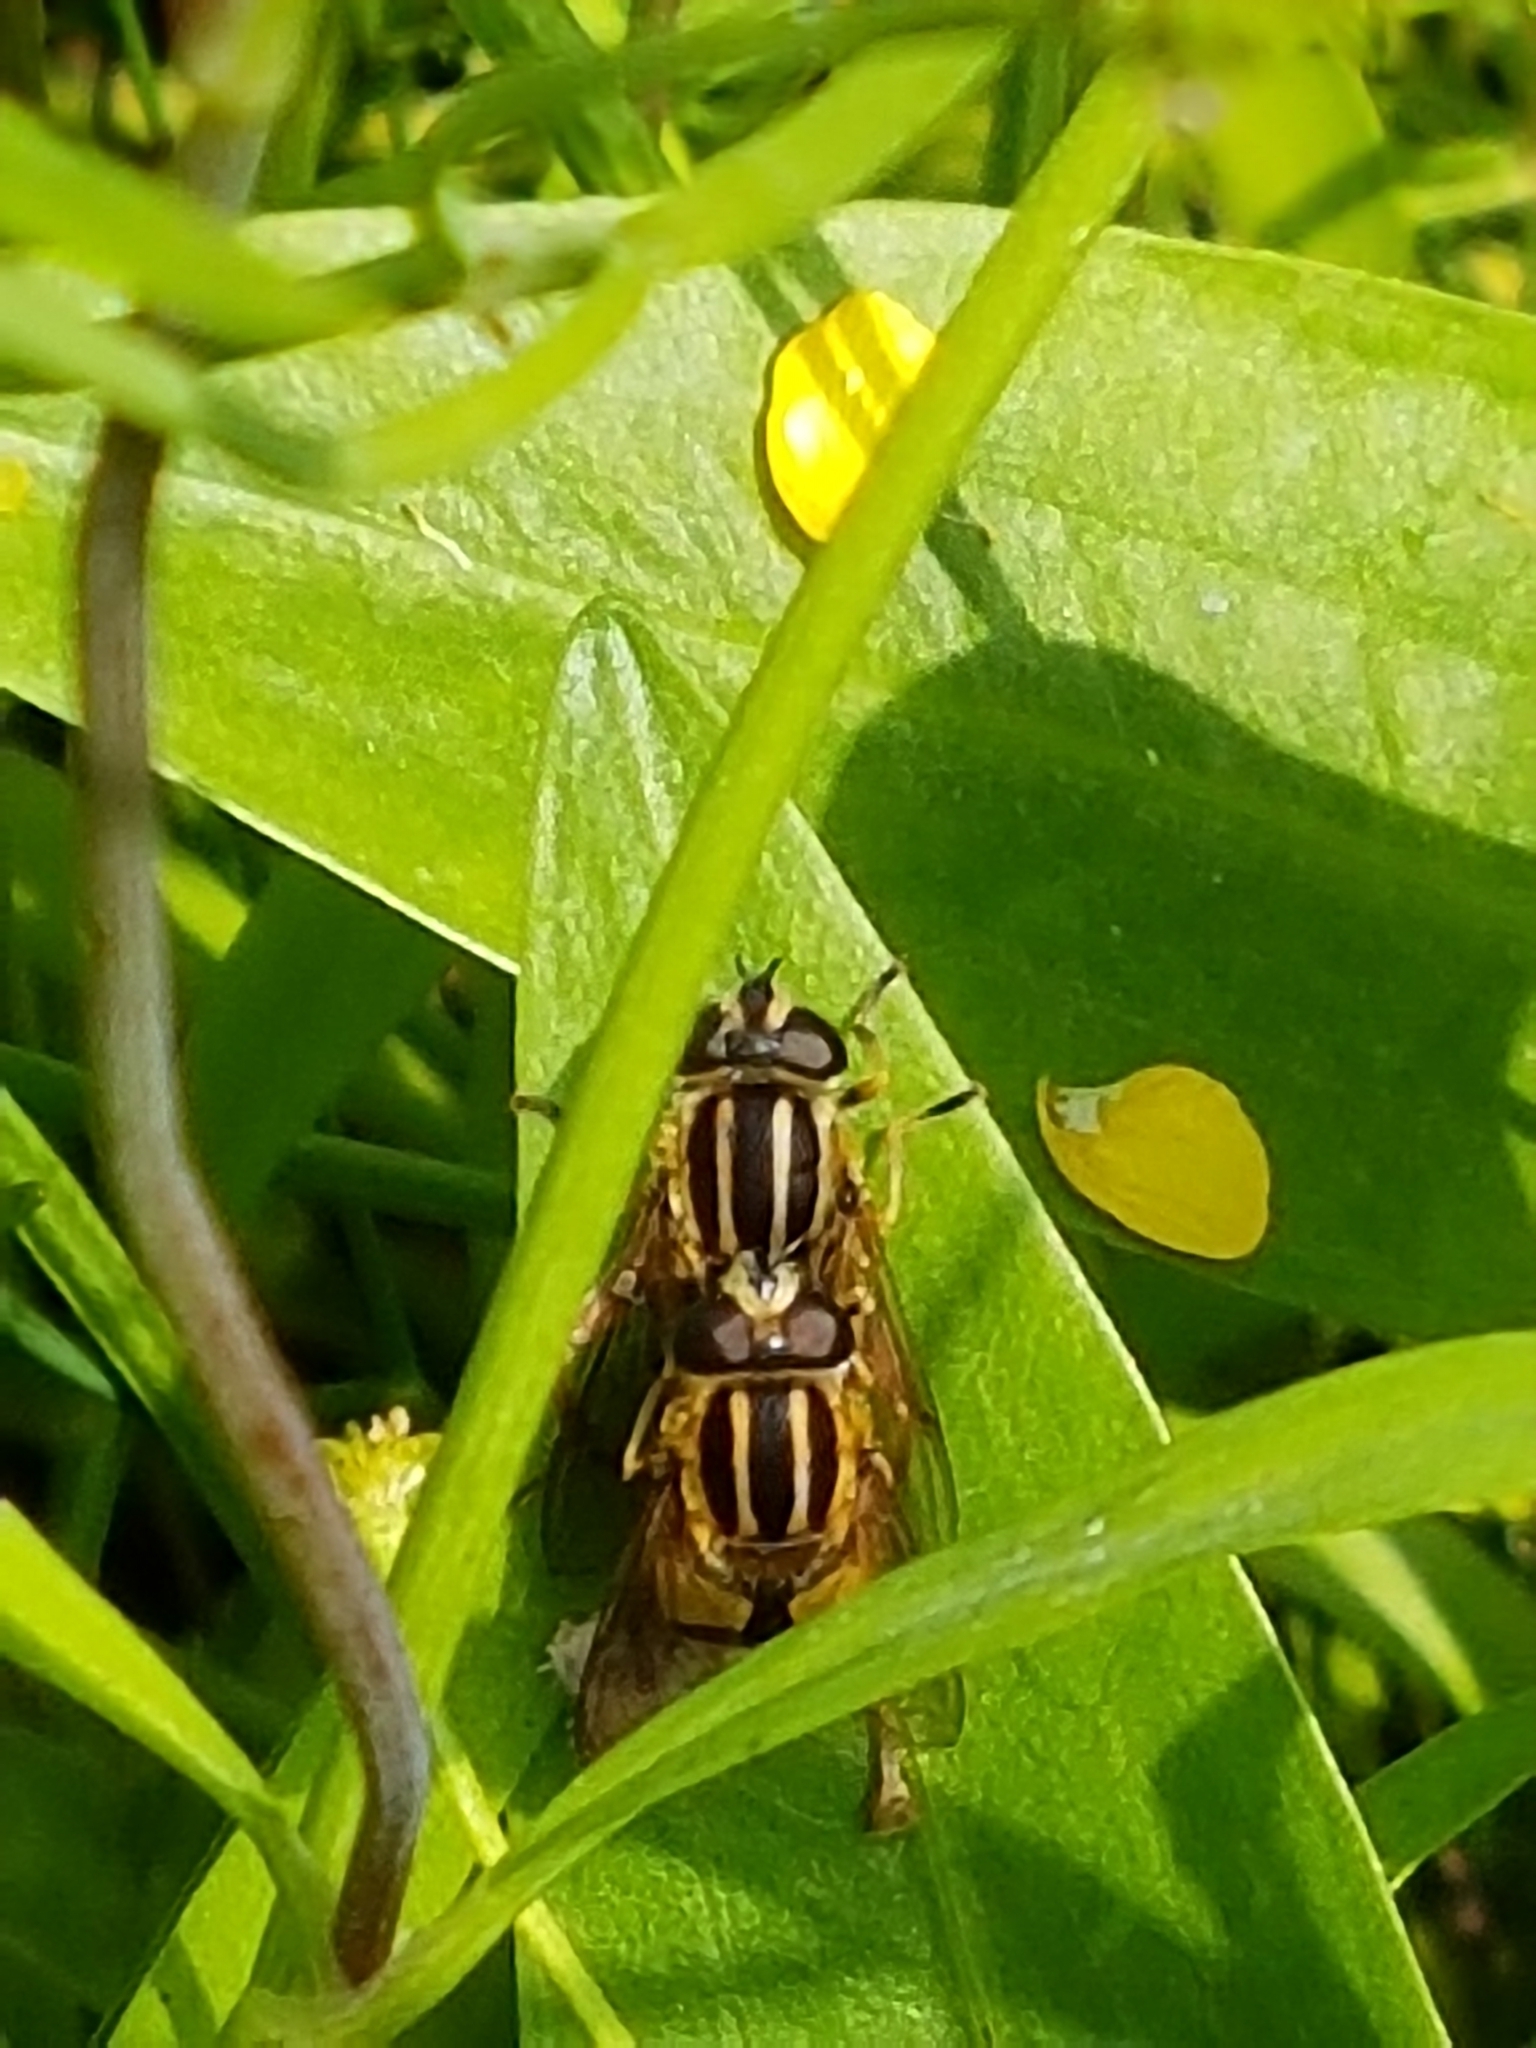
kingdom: Animalia
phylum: Arthropoda
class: Insecta
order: Diptera
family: Syrphidae
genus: Helophilus
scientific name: Helophilus pendulus
